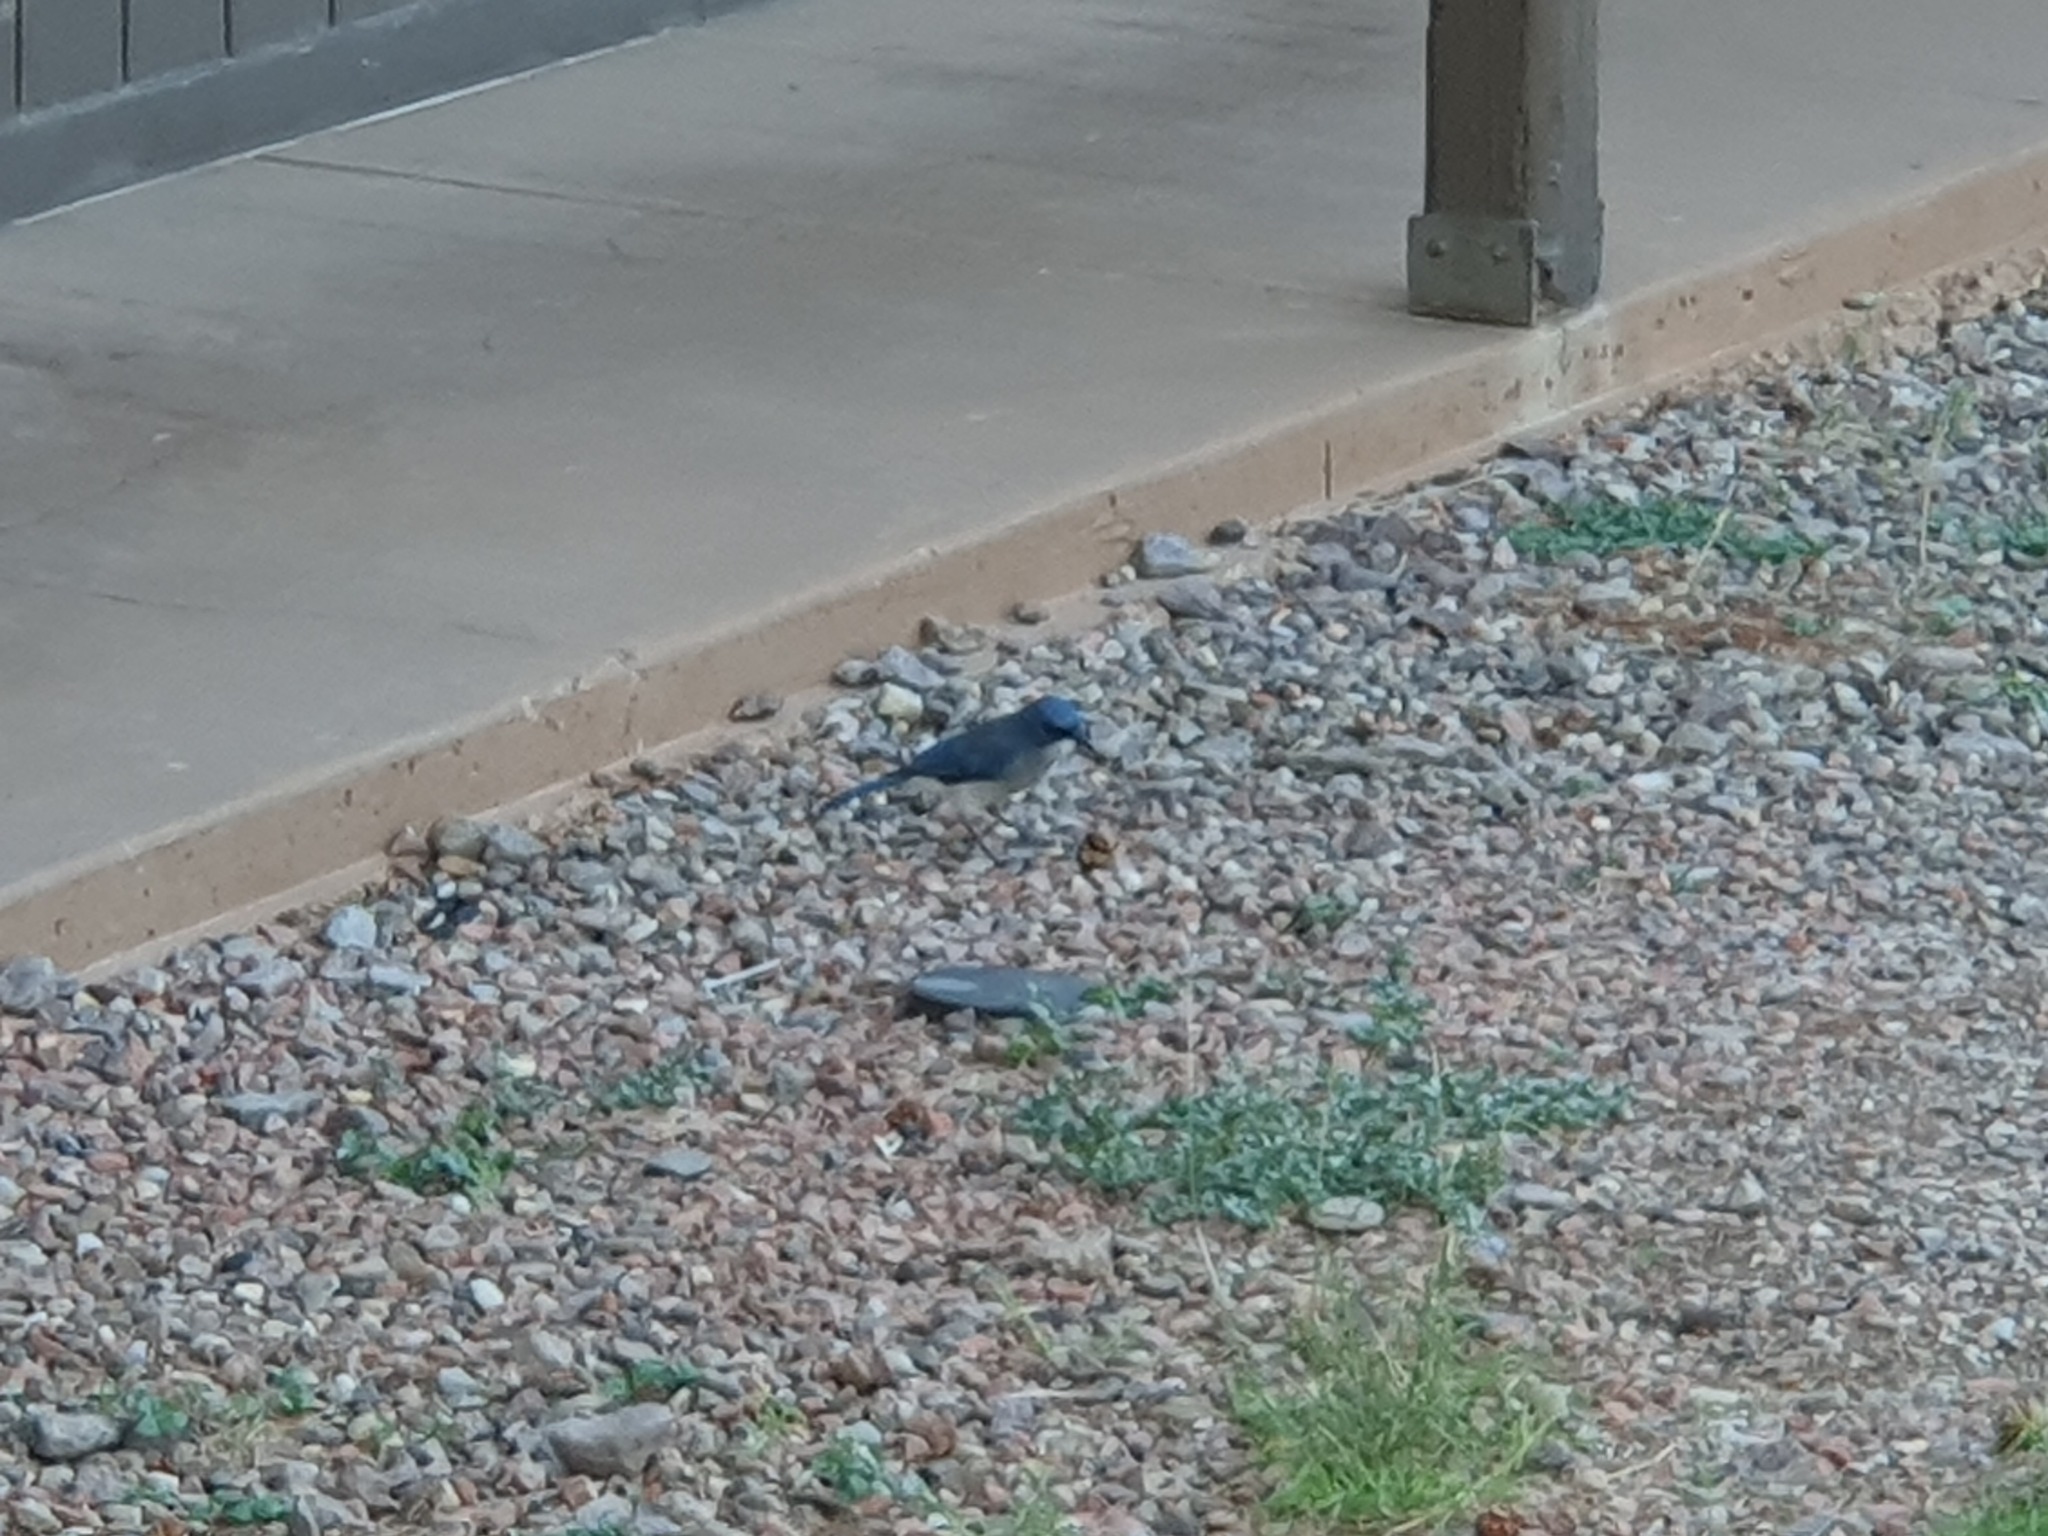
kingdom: Animalia
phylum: Chordata
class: Aves
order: Passeriformes
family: Corvidae
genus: Aphelocoma
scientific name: Aphelocoma wollweberi
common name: Mexican jay
